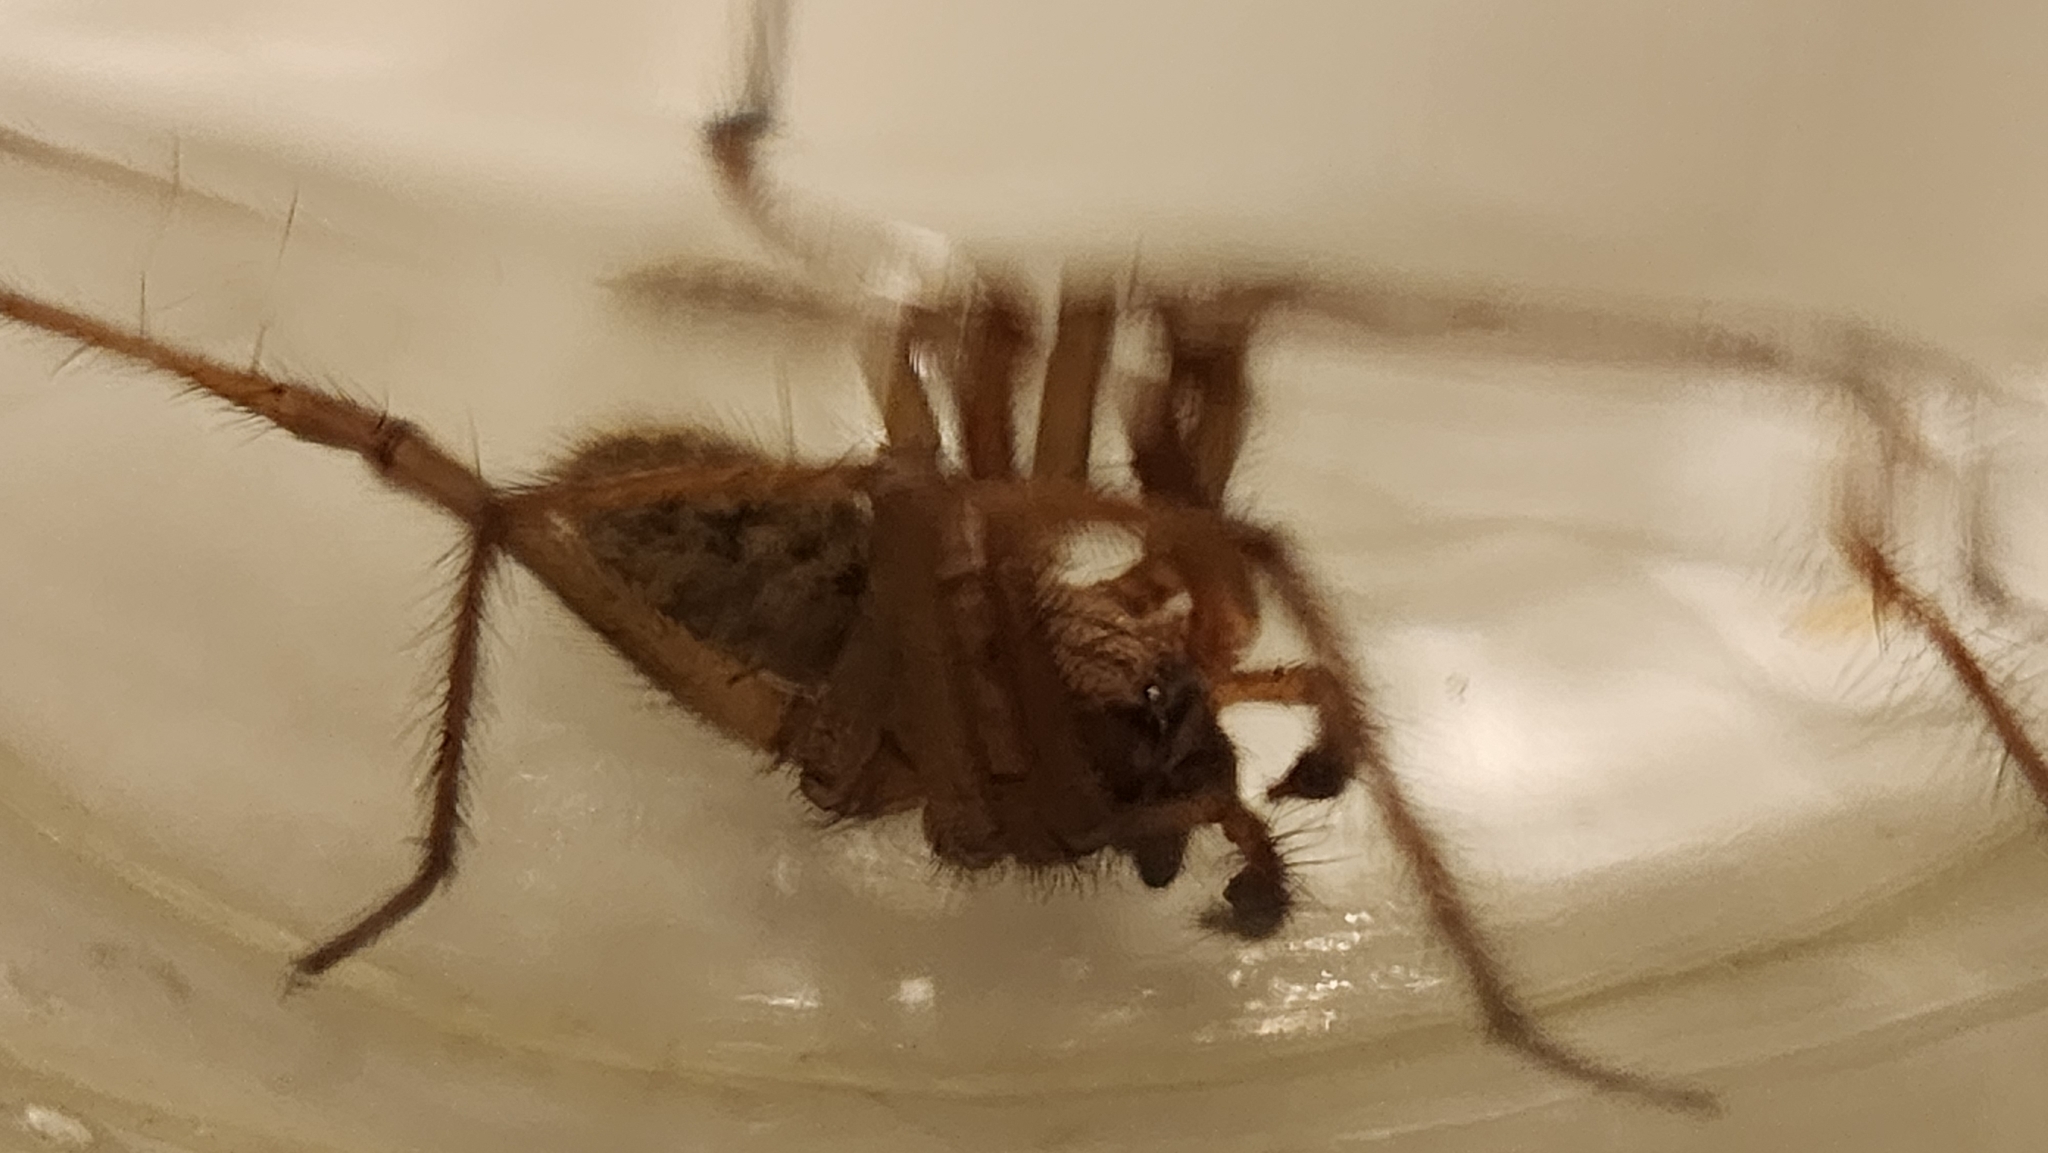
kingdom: Animalia
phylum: Arthropoda
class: Arachnida
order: Araneae
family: Agelenidae
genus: Eratigena
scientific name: Eratigena duellica
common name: Giant house spider
